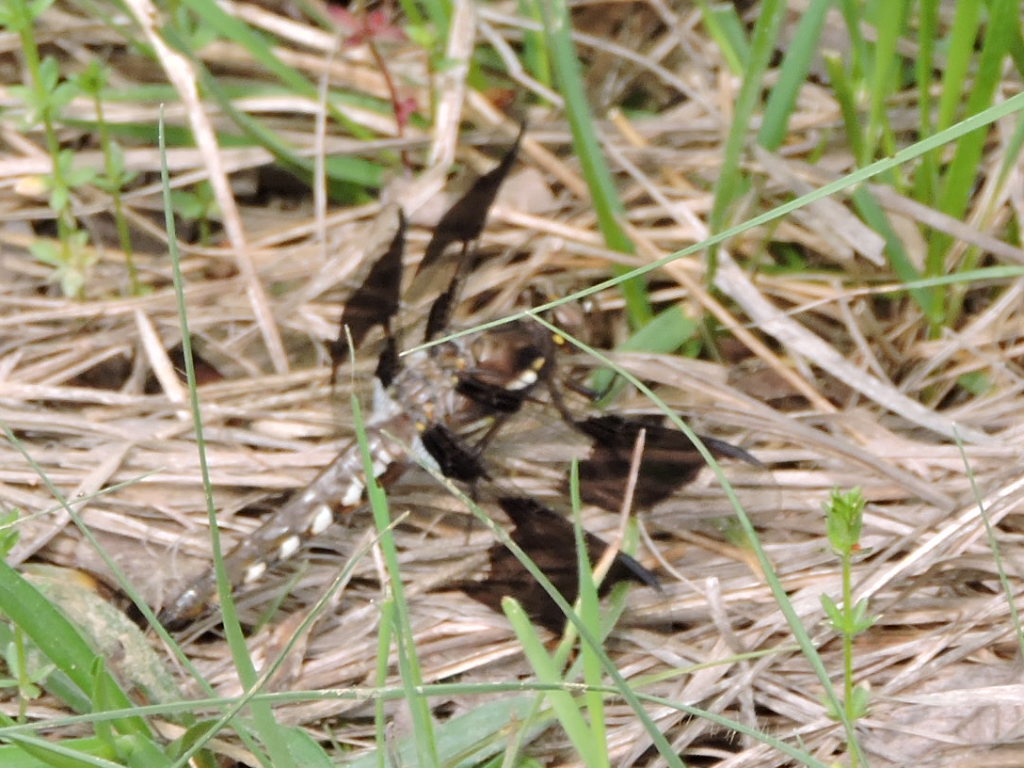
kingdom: Animalia
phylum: Arthropoda
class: Insecta
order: Odonata
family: Libellulidae
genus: Plathemis
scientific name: Plathemis lydia
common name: Common whitetail
